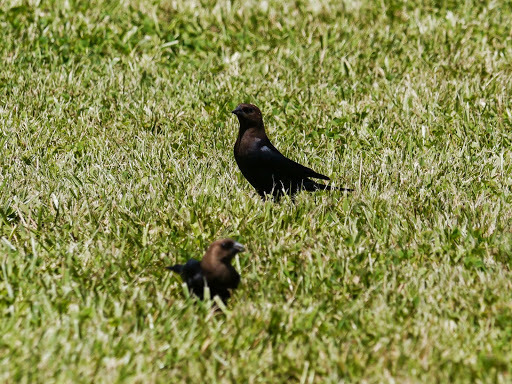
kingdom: Animalia
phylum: Chordata
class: Aves
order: Passeriformes
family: Icteridae
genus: Molothrus
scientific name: Molothrus ater
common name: Brown-headed cowbird
